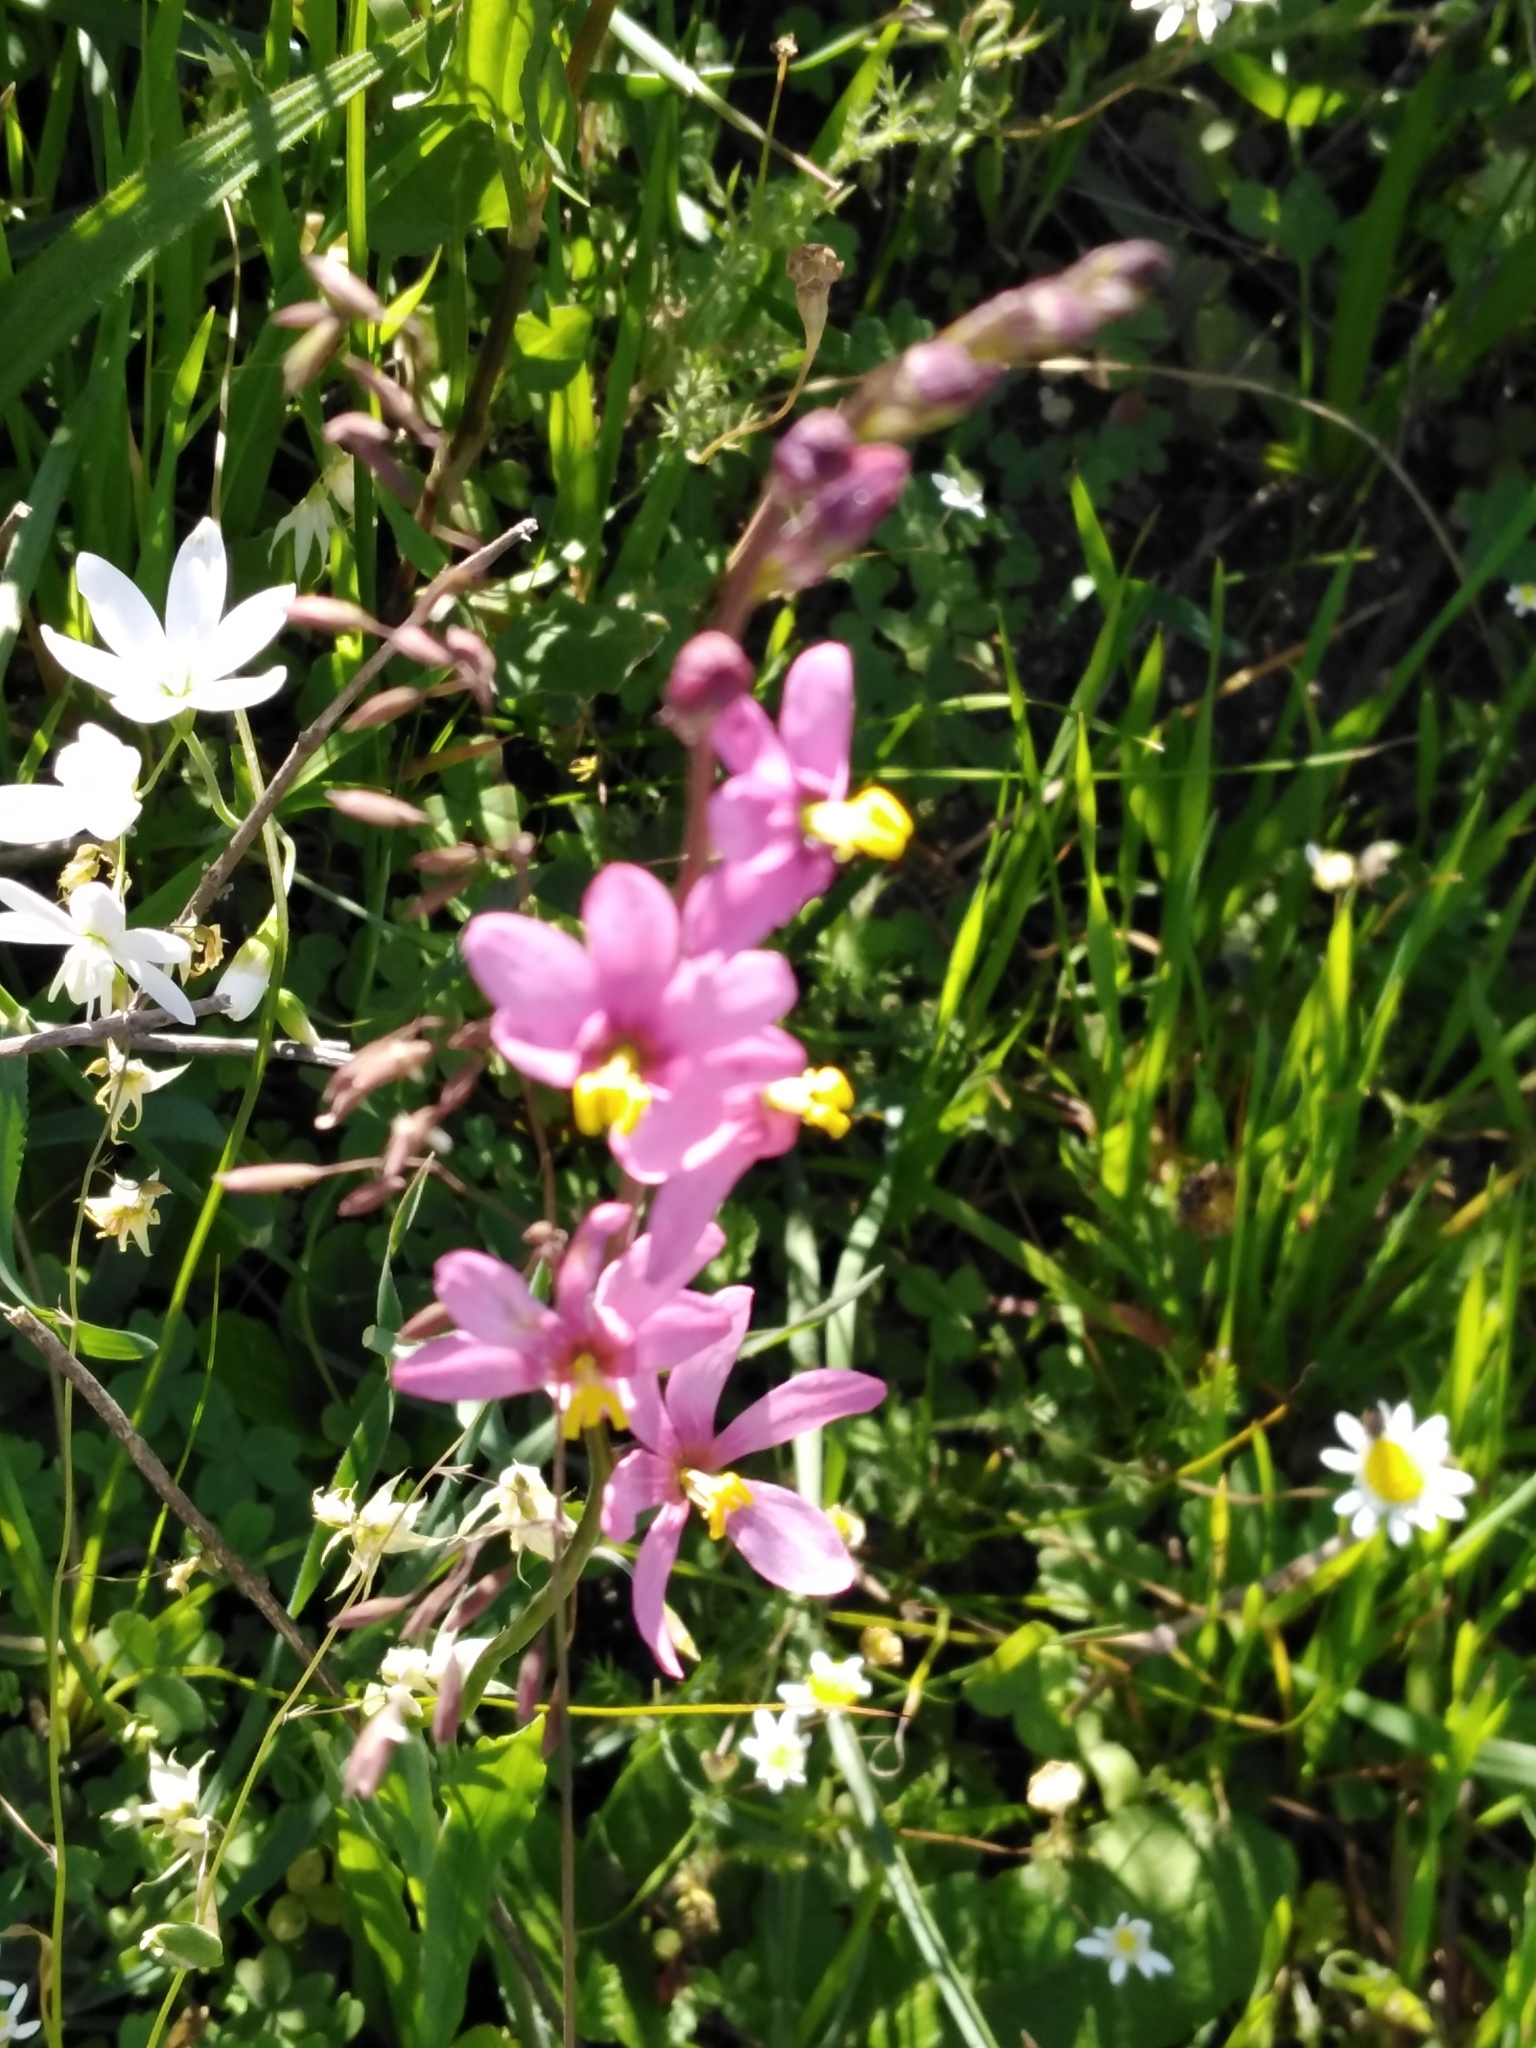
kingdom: Plantae
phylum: Tracheophyta
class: Liliopsida
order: Asparagales
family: Iridaceae
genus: Ixia
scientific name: Ixia scillaris
